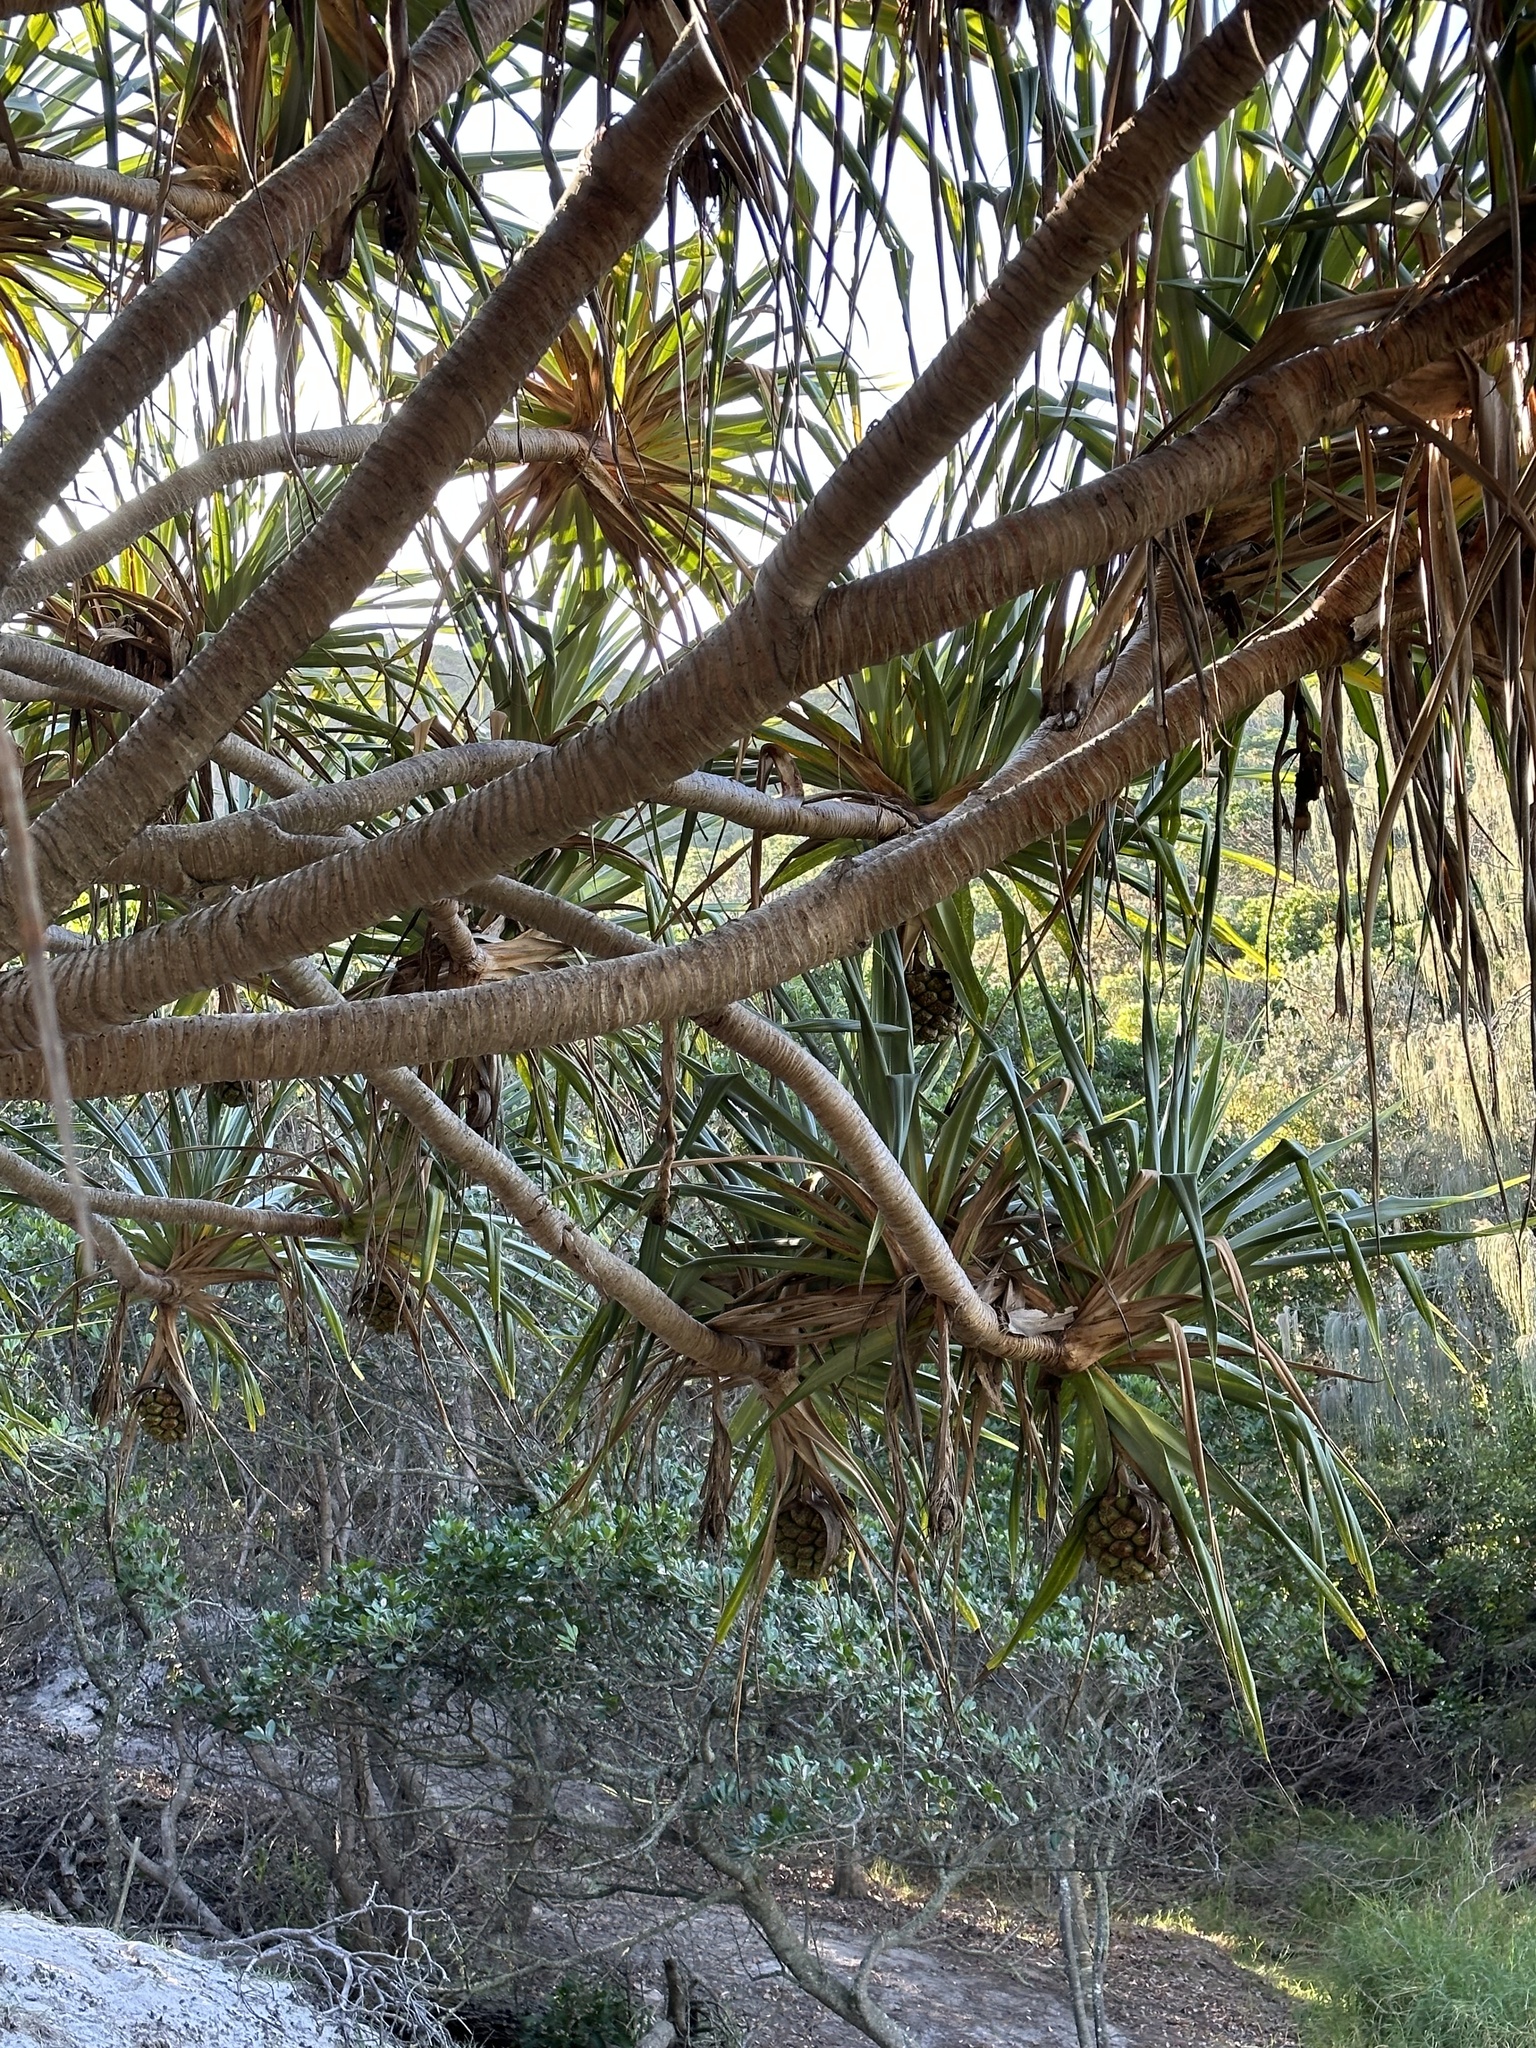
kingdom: Plantae
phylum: Tracheophyta
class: Liliopsida
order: Pandanales
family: Pandanaceae
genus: Pandanus
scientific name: Pandanus tectorius
